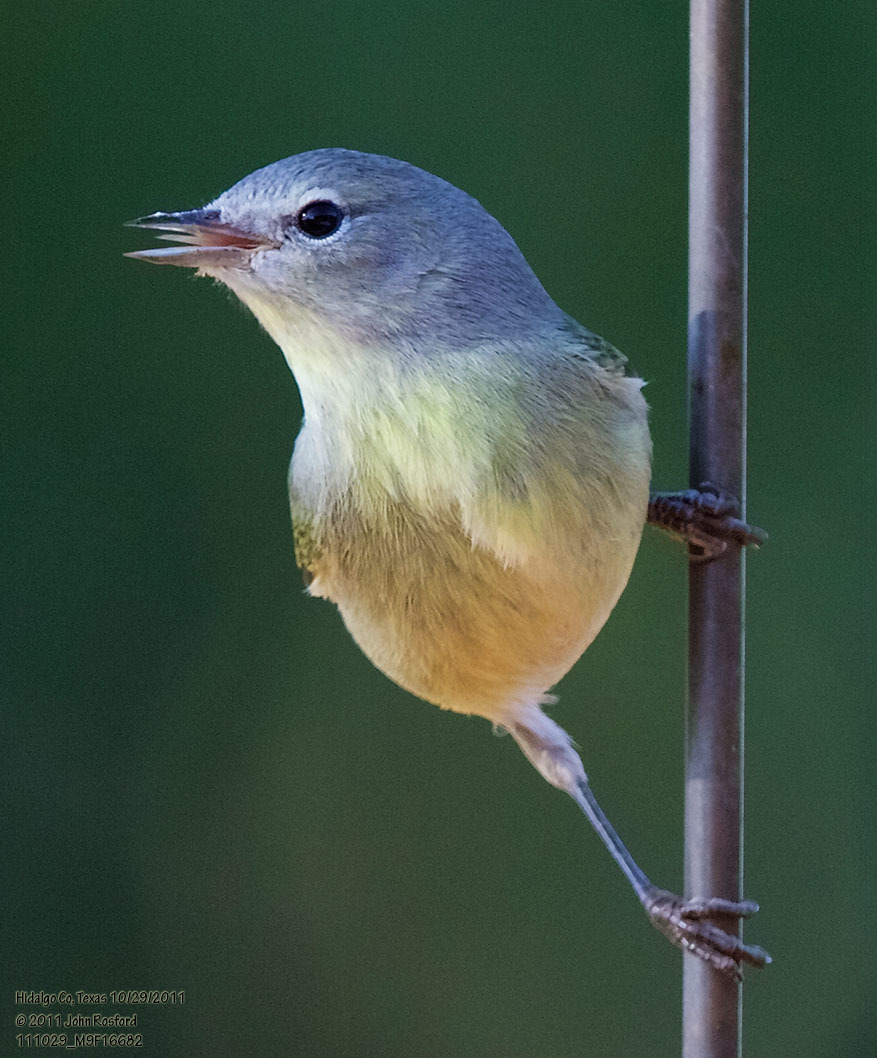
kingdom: Animalia
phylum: Chordata
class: Aves
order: Passeriformes
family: Parulidae
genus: Leiothlypis
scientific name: Leiothlypis celata
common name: Orange-crowned warbler
